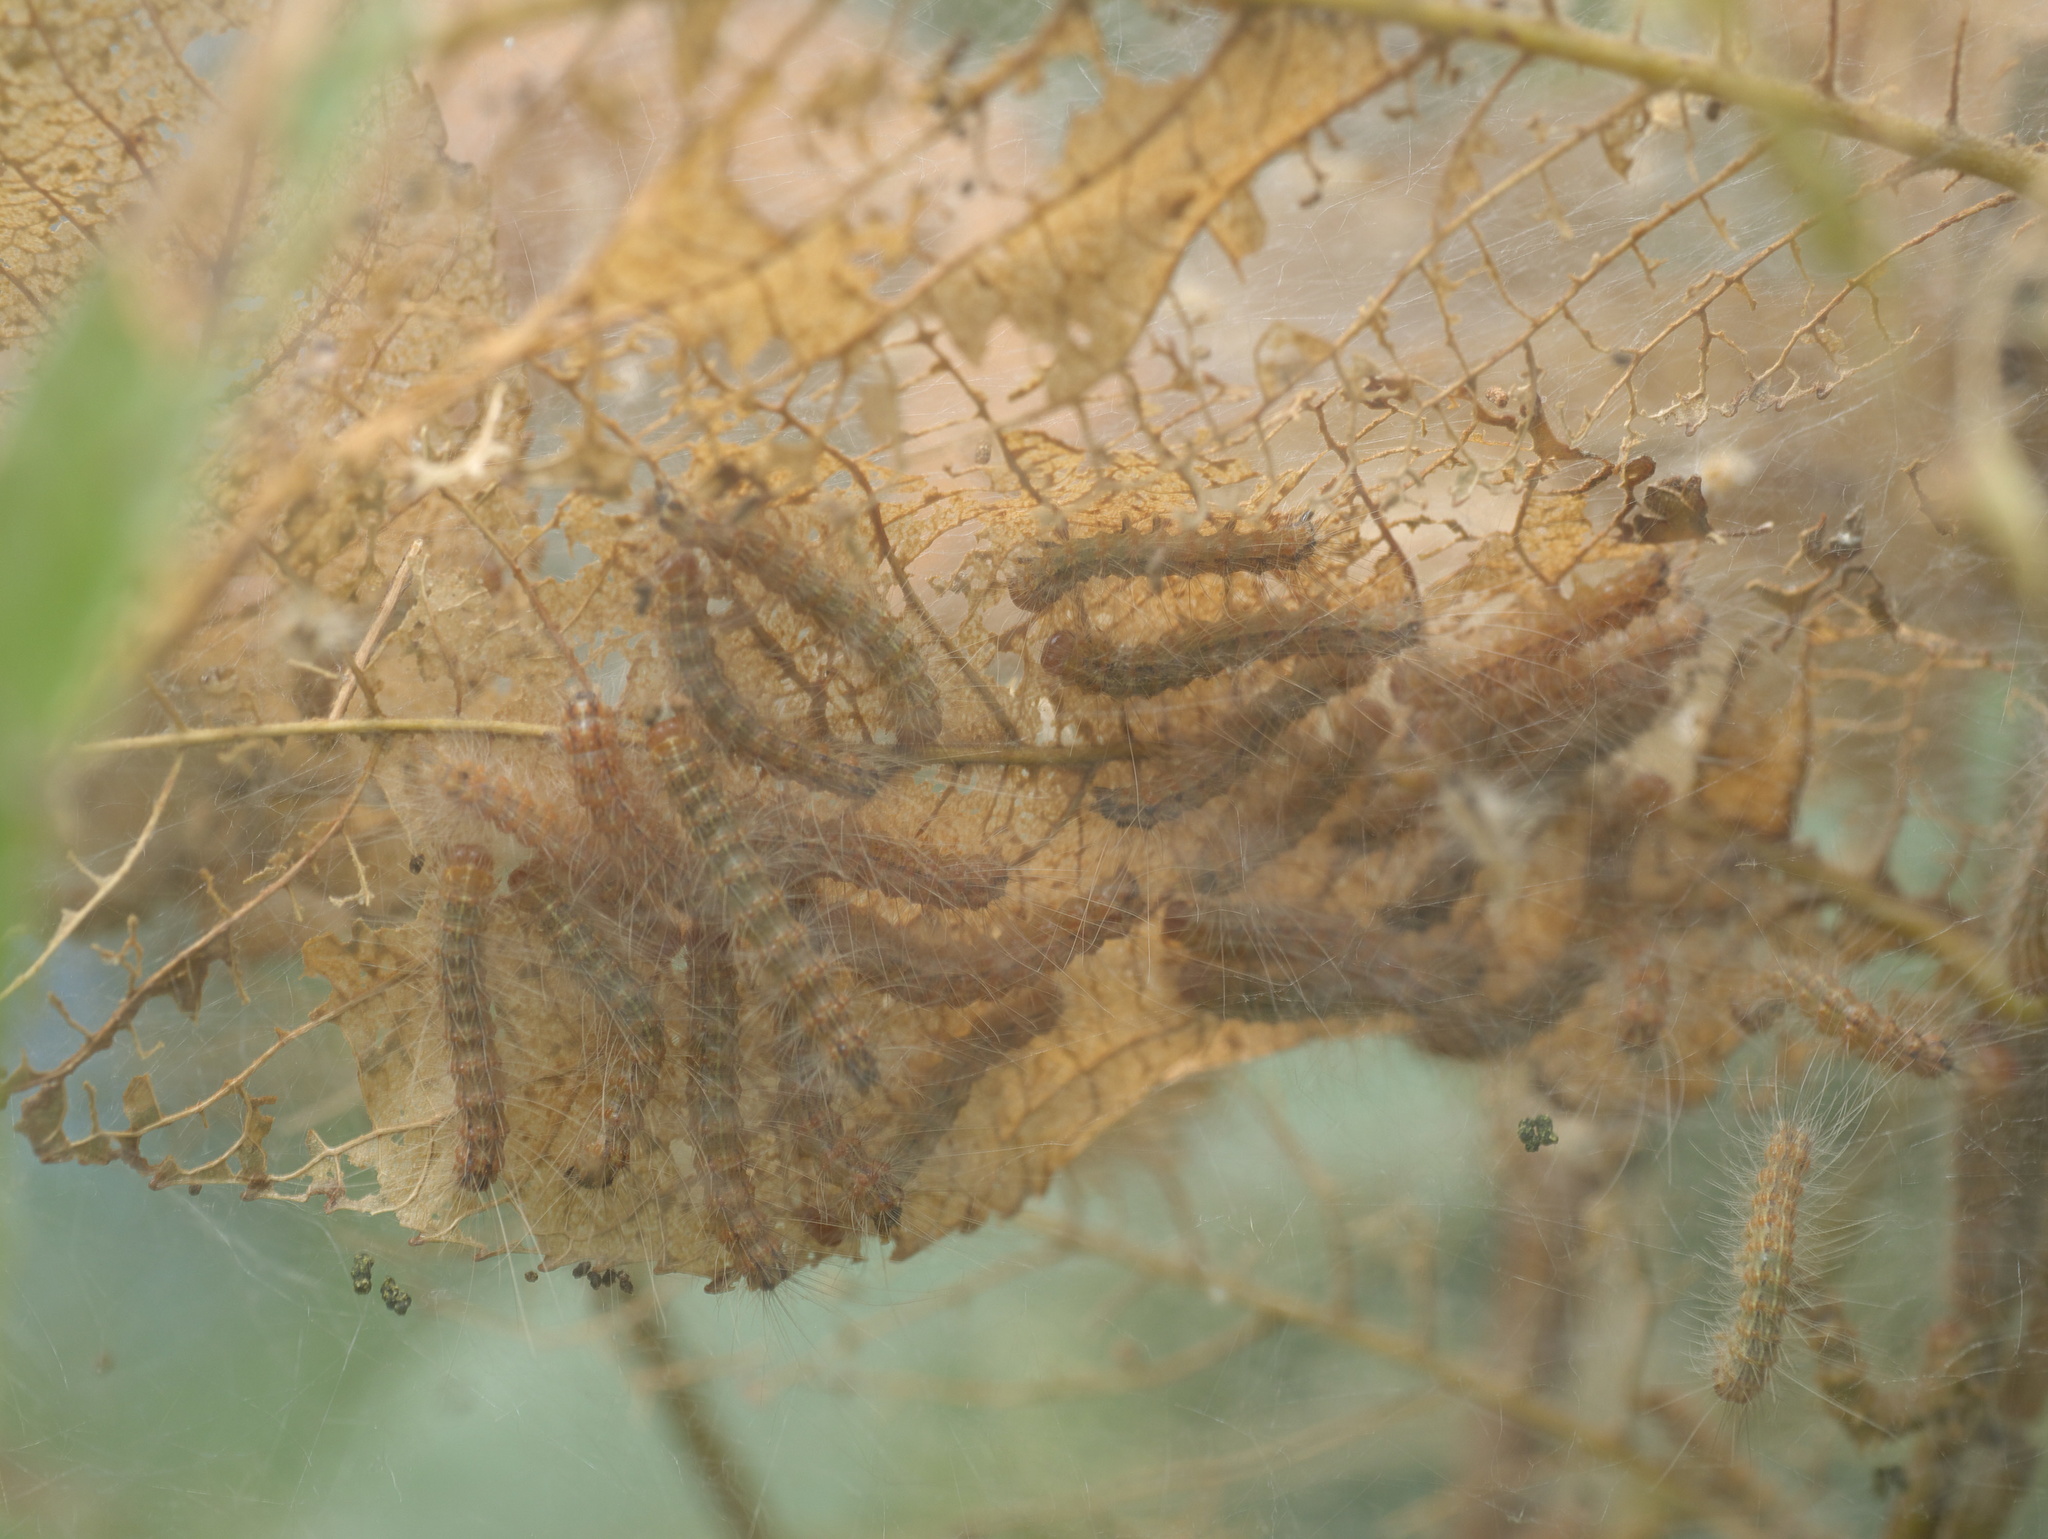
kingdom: Animalia
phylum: Arthropoda
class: Insecta
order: Lepidoptera
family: Erebidae
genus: Hyphantria
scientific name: Hyphantria cunea
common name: American white moth
